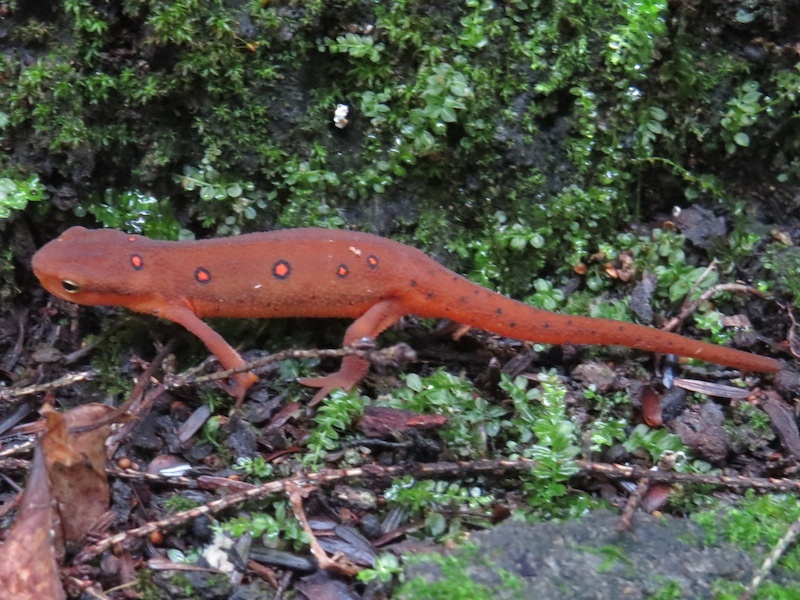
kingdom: Animalia
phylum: Chordata
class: Amphibia
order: Caudata
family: Salamandridae
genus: Notophthalmus
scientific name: Notophthalmus viridescens
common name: Eastern newt
